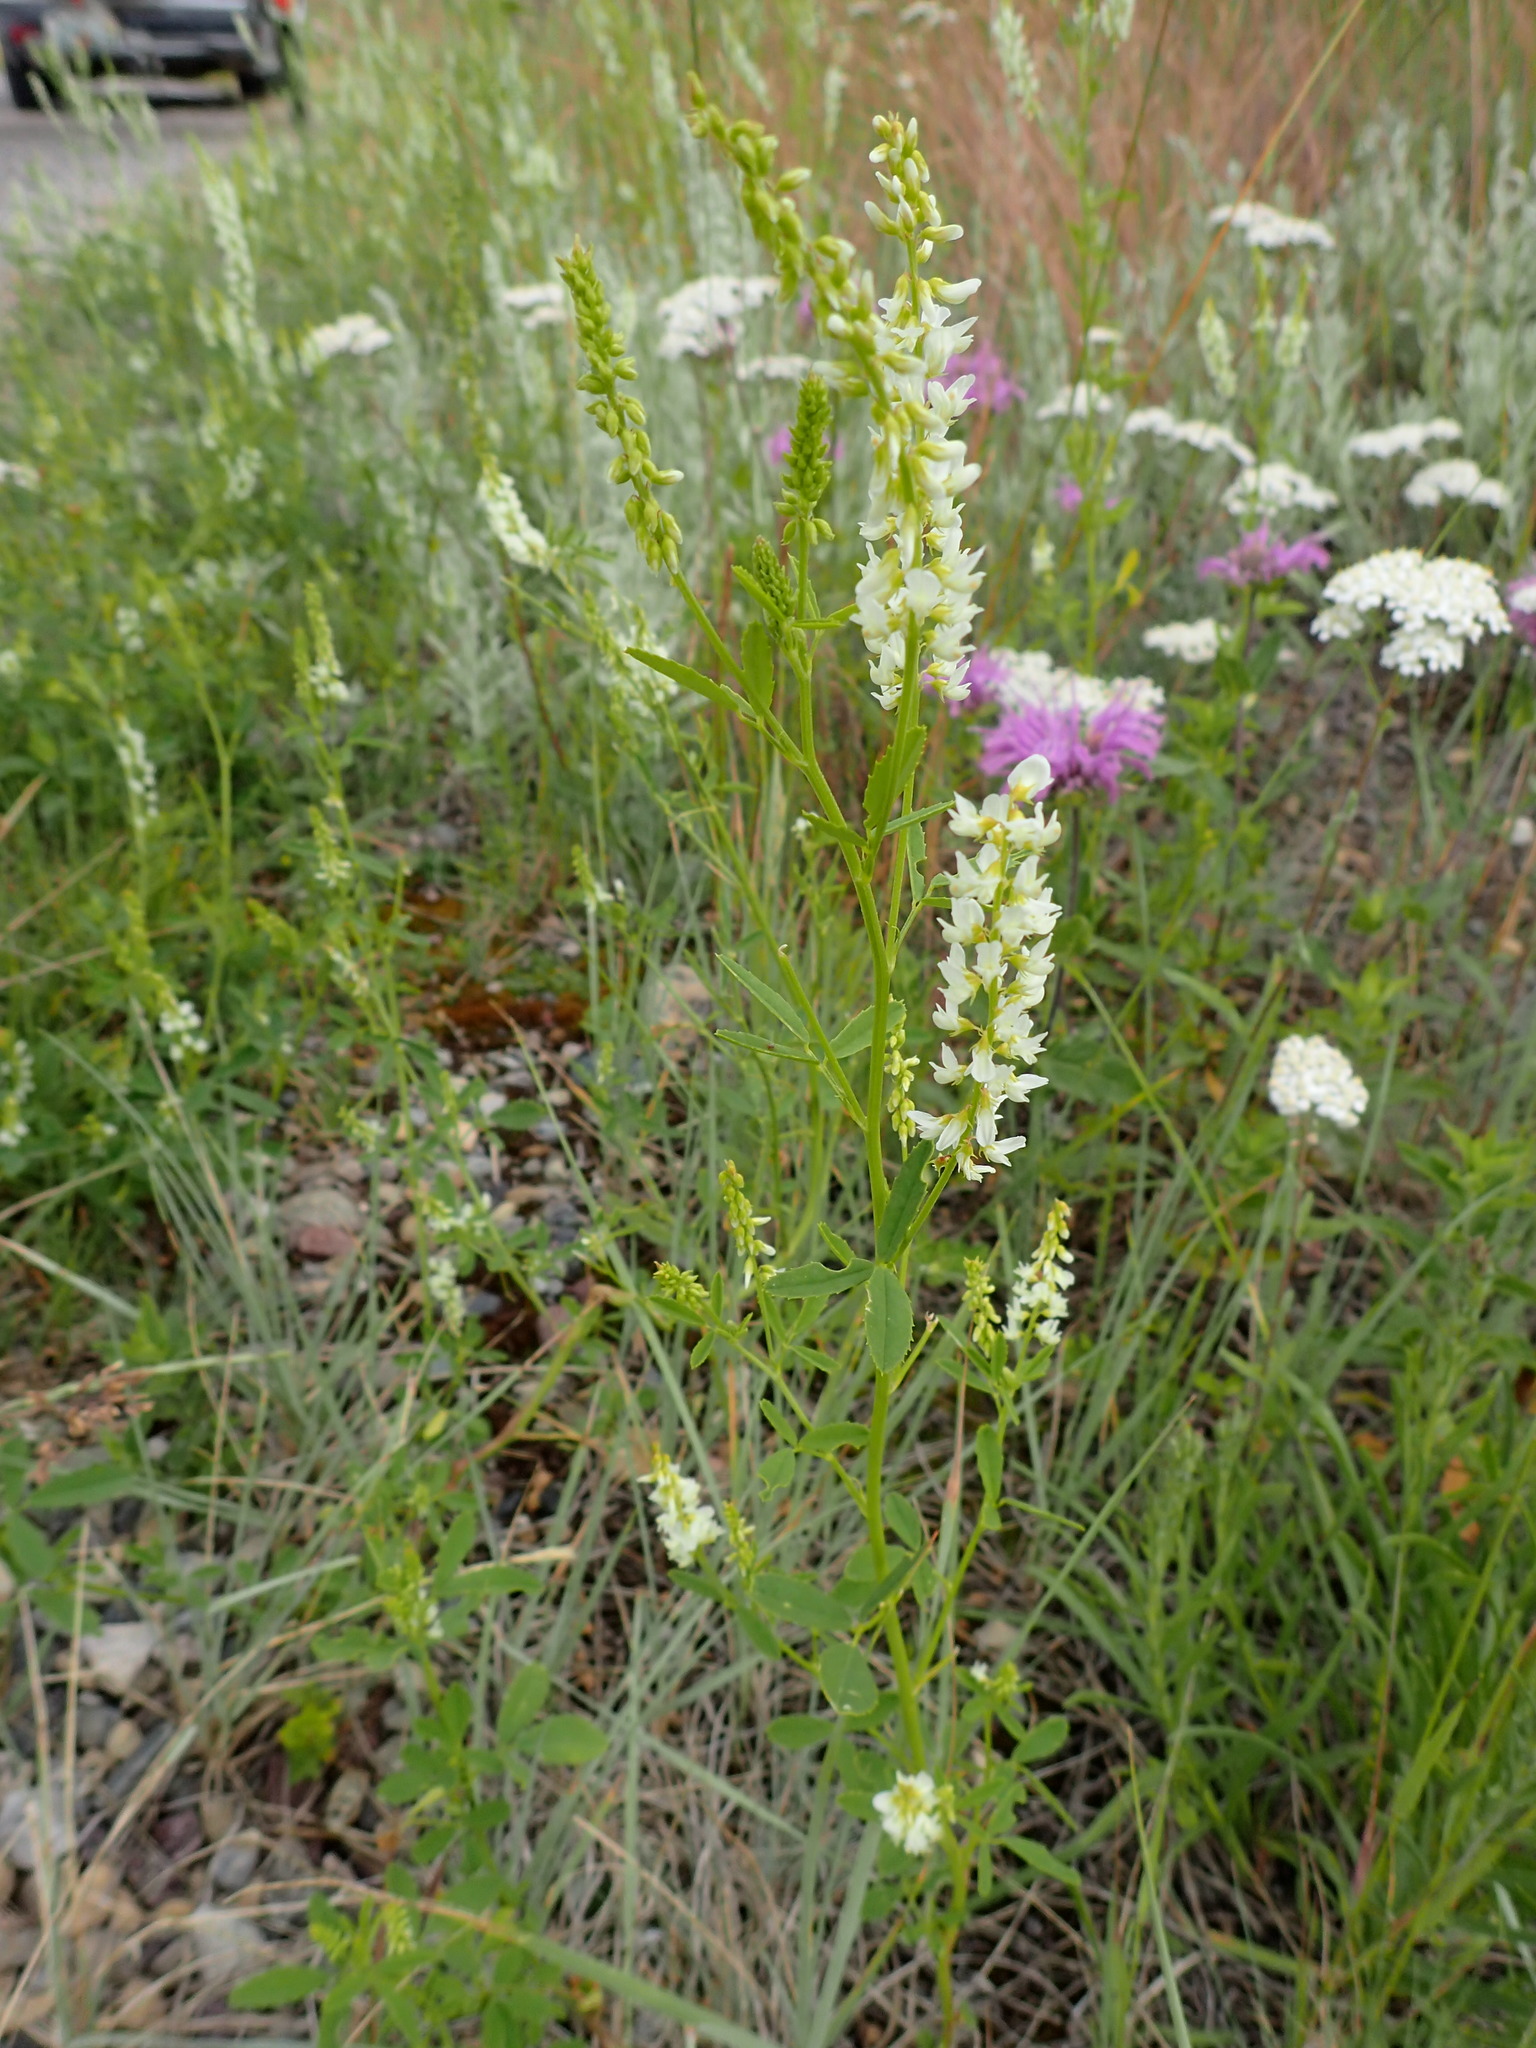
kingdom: Plantae
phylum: Tracheophyta
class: Magnoliopsida
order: Fabales
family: Fabaceae
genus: Melilotus
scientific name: Melilotus albus
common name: White melilot
